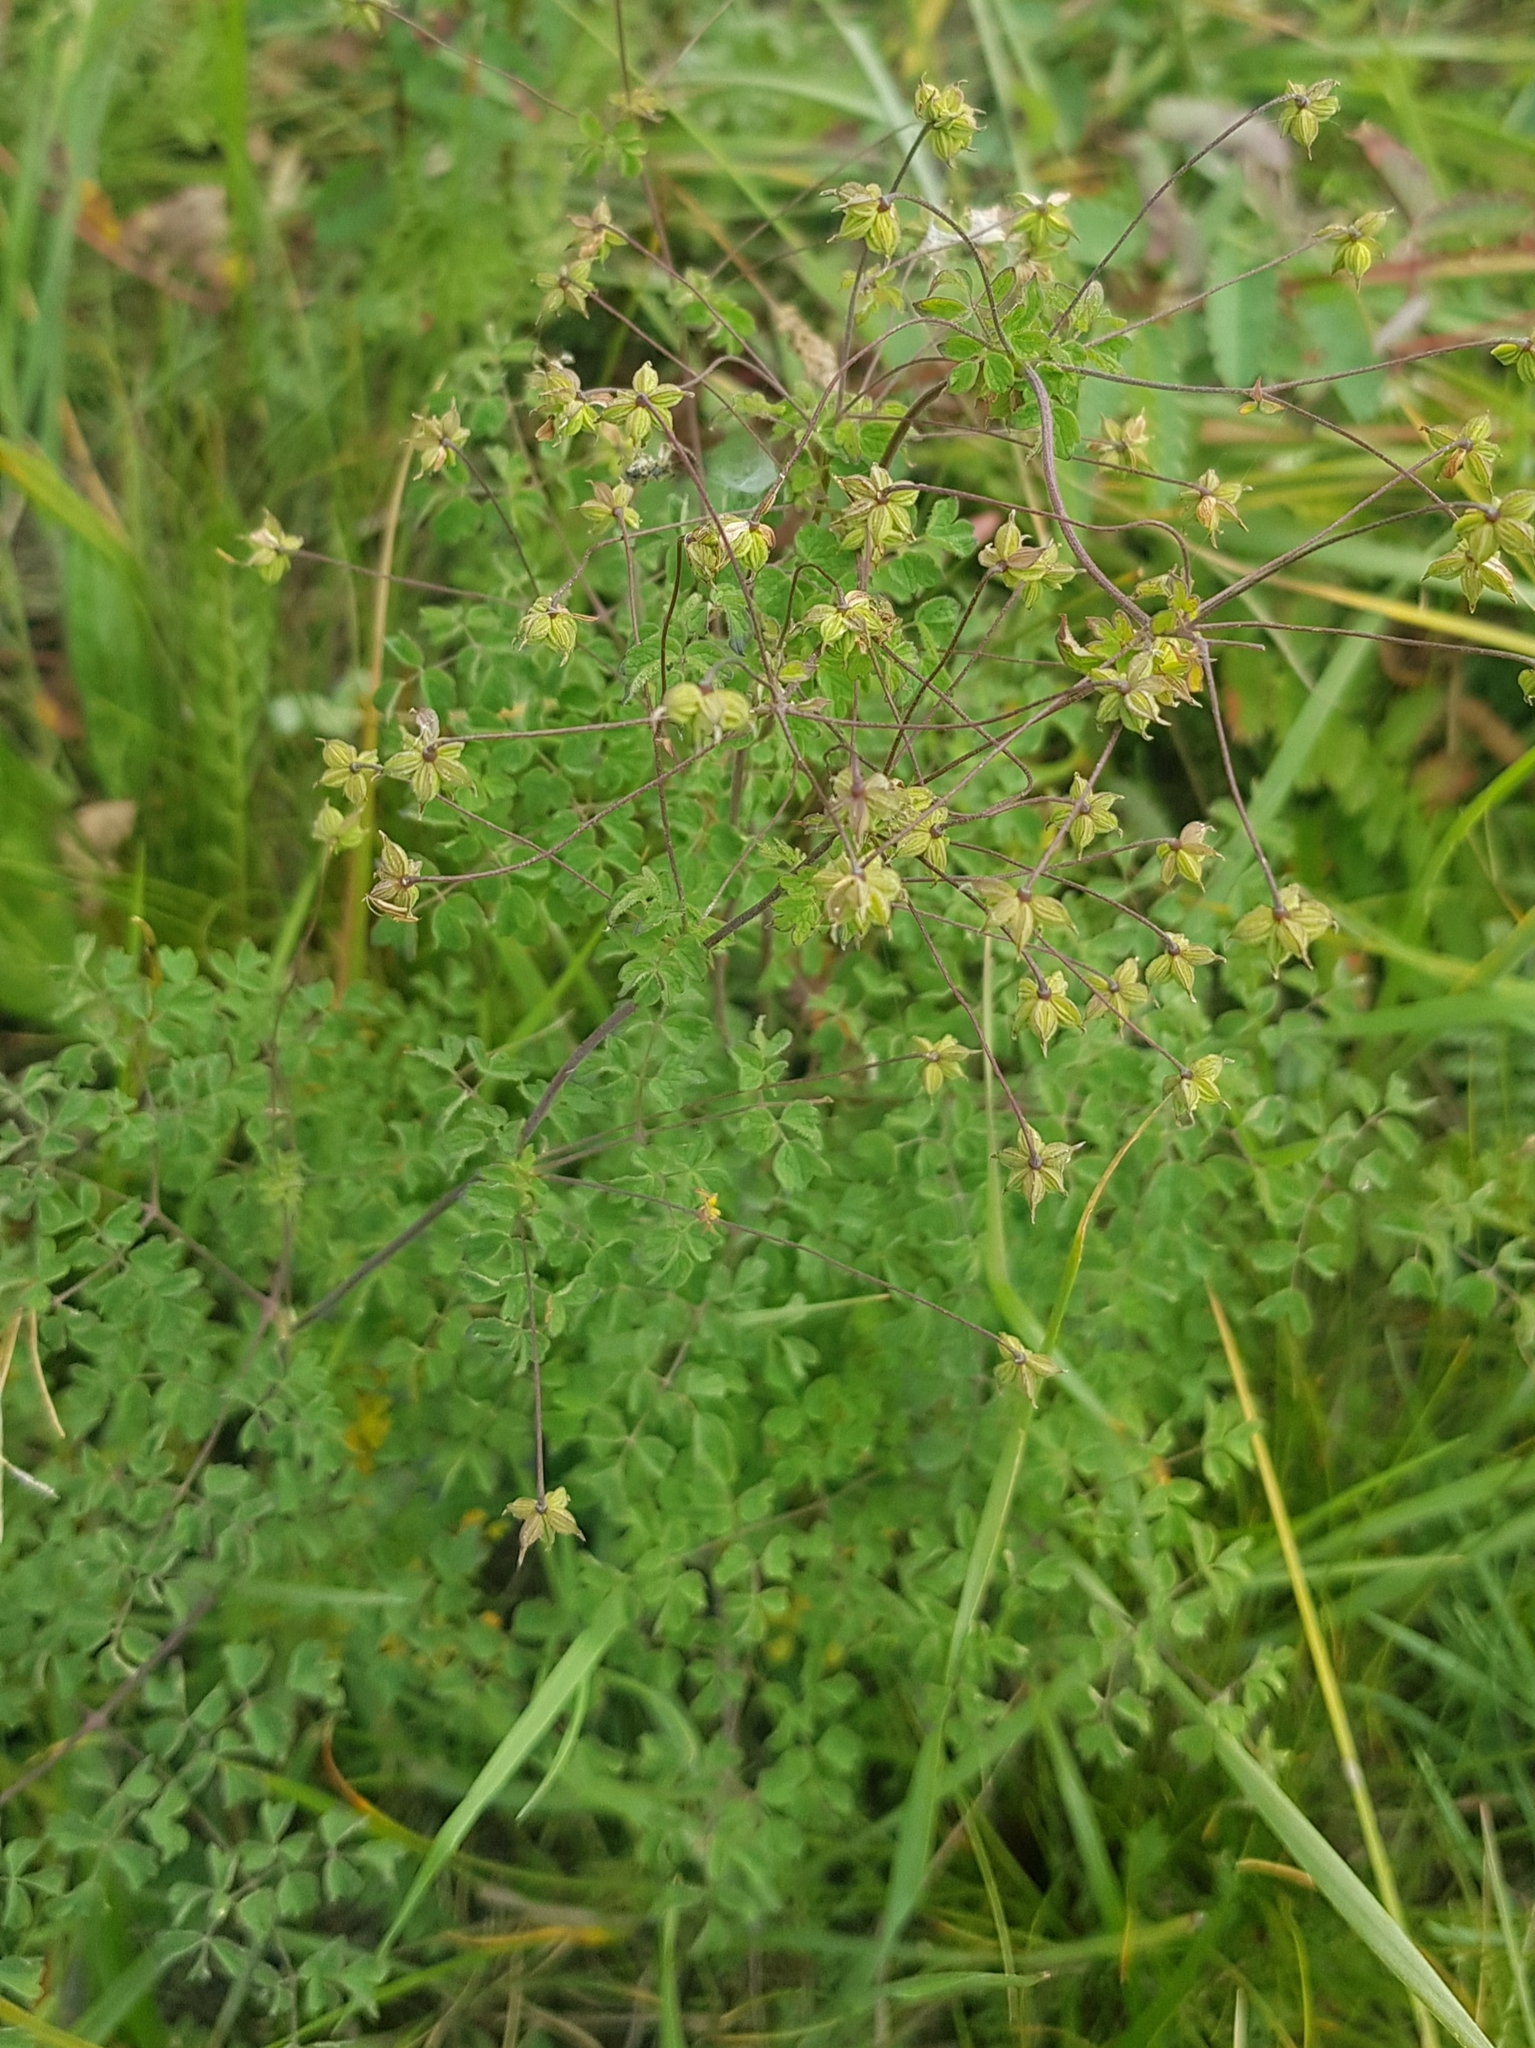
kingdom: Plantae
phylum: Tracheophyta
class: Magnoliopsida
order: Ranunculales
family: Ranunculaceae
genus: Thalictrum
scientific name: Thalictrum foetidum
